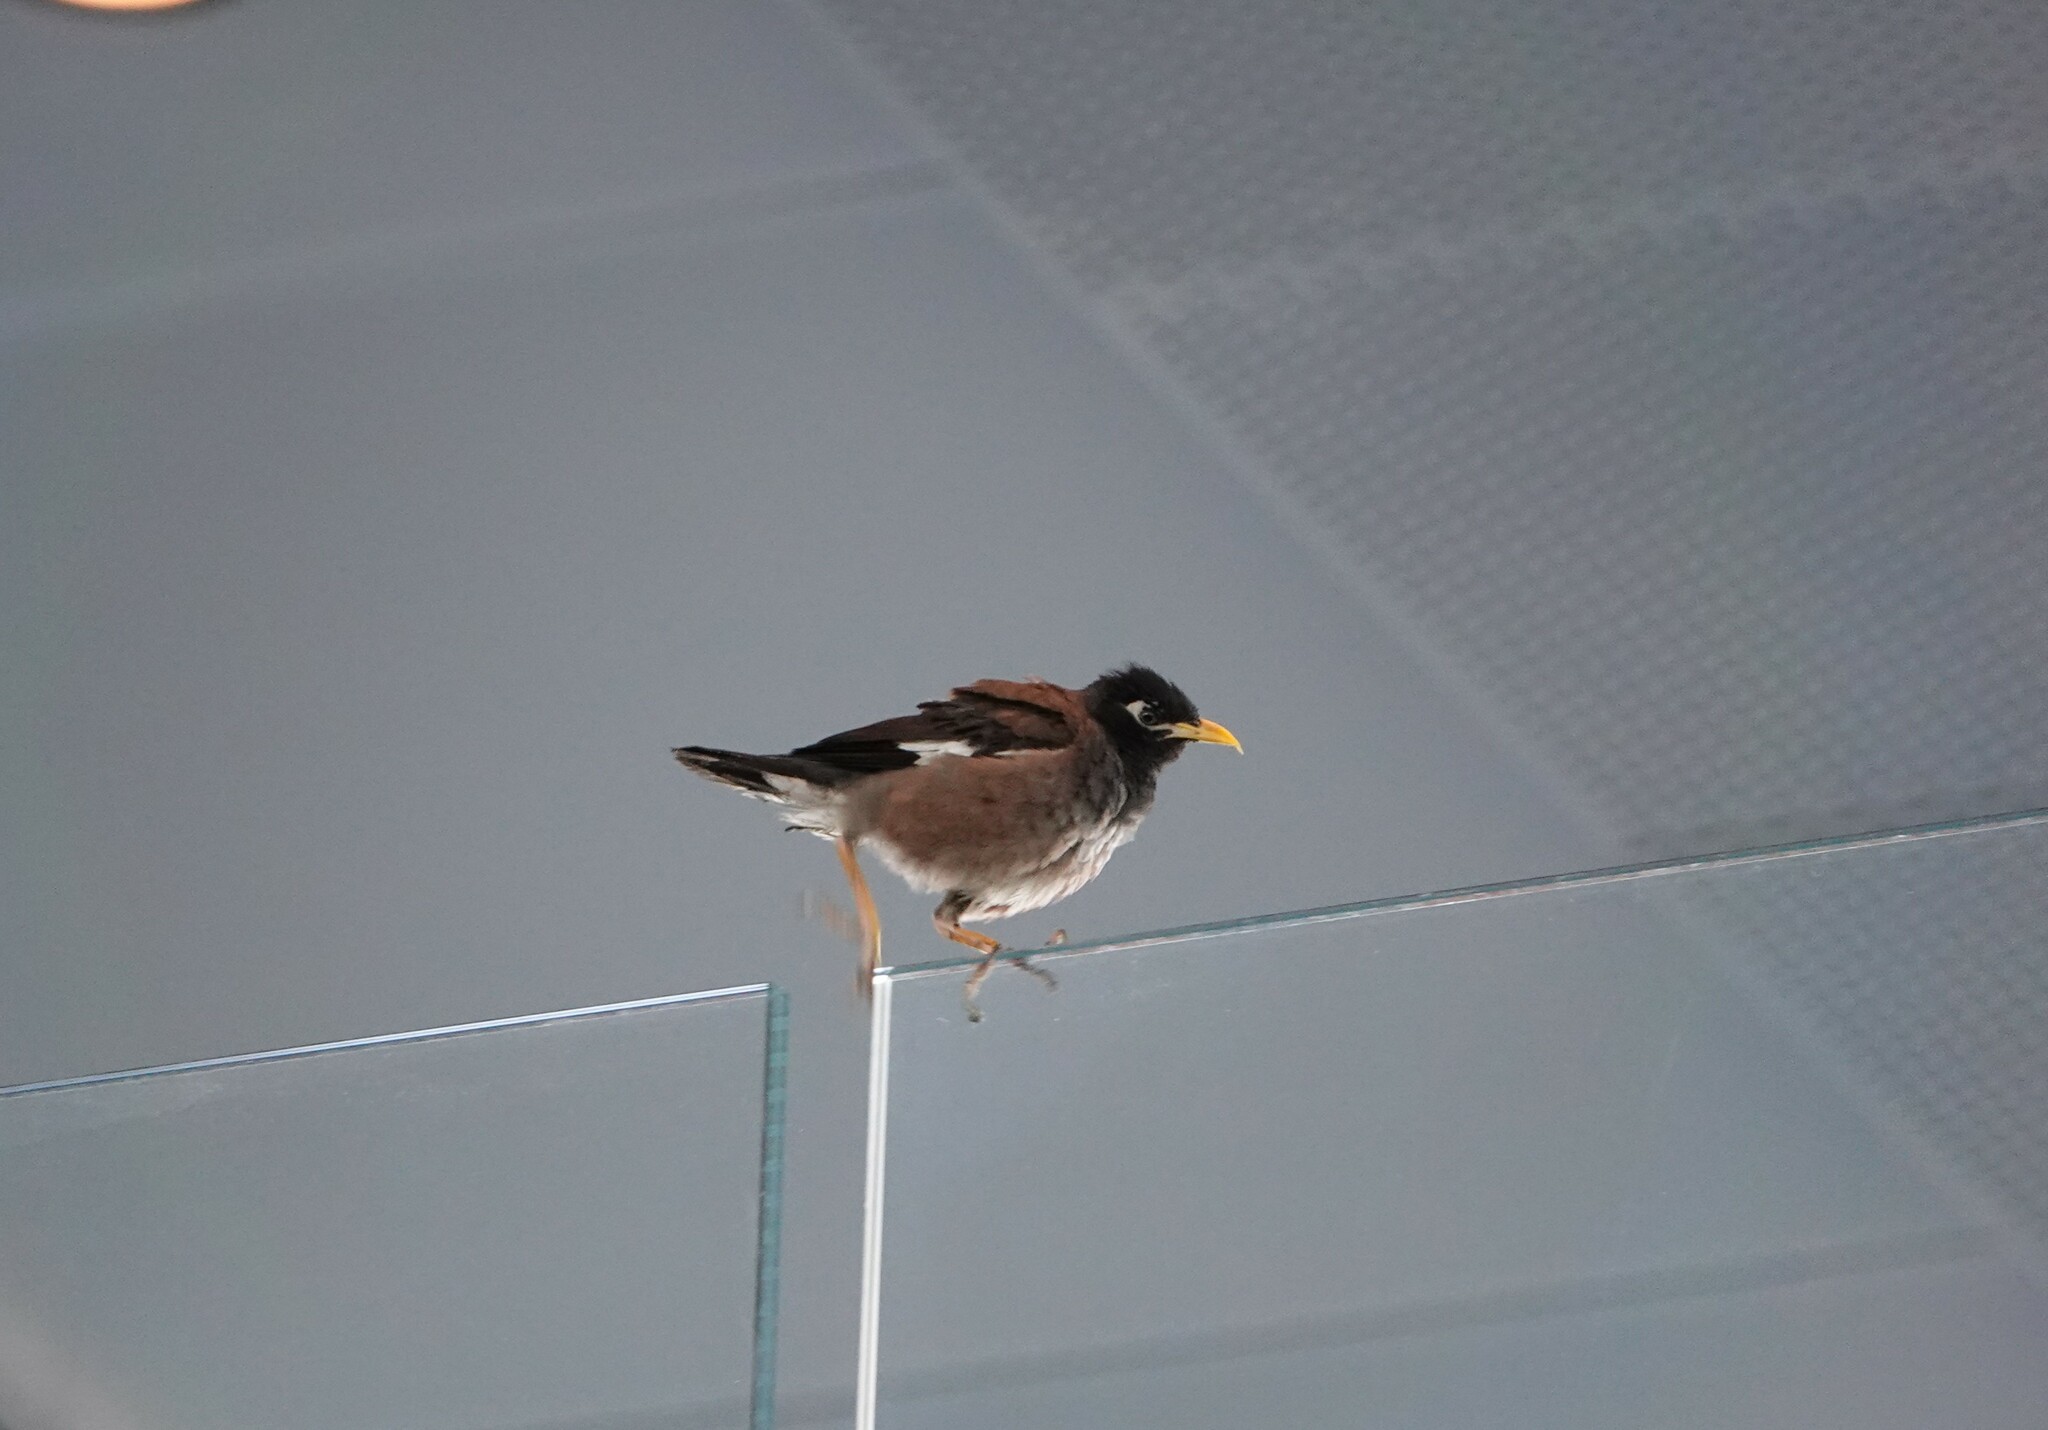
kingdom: Animalia
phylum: Chordata
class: Aves
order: Passeriformes
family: Sturnidae
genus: Acridotheres
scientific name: Acridotheres tristis
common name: Common myna
